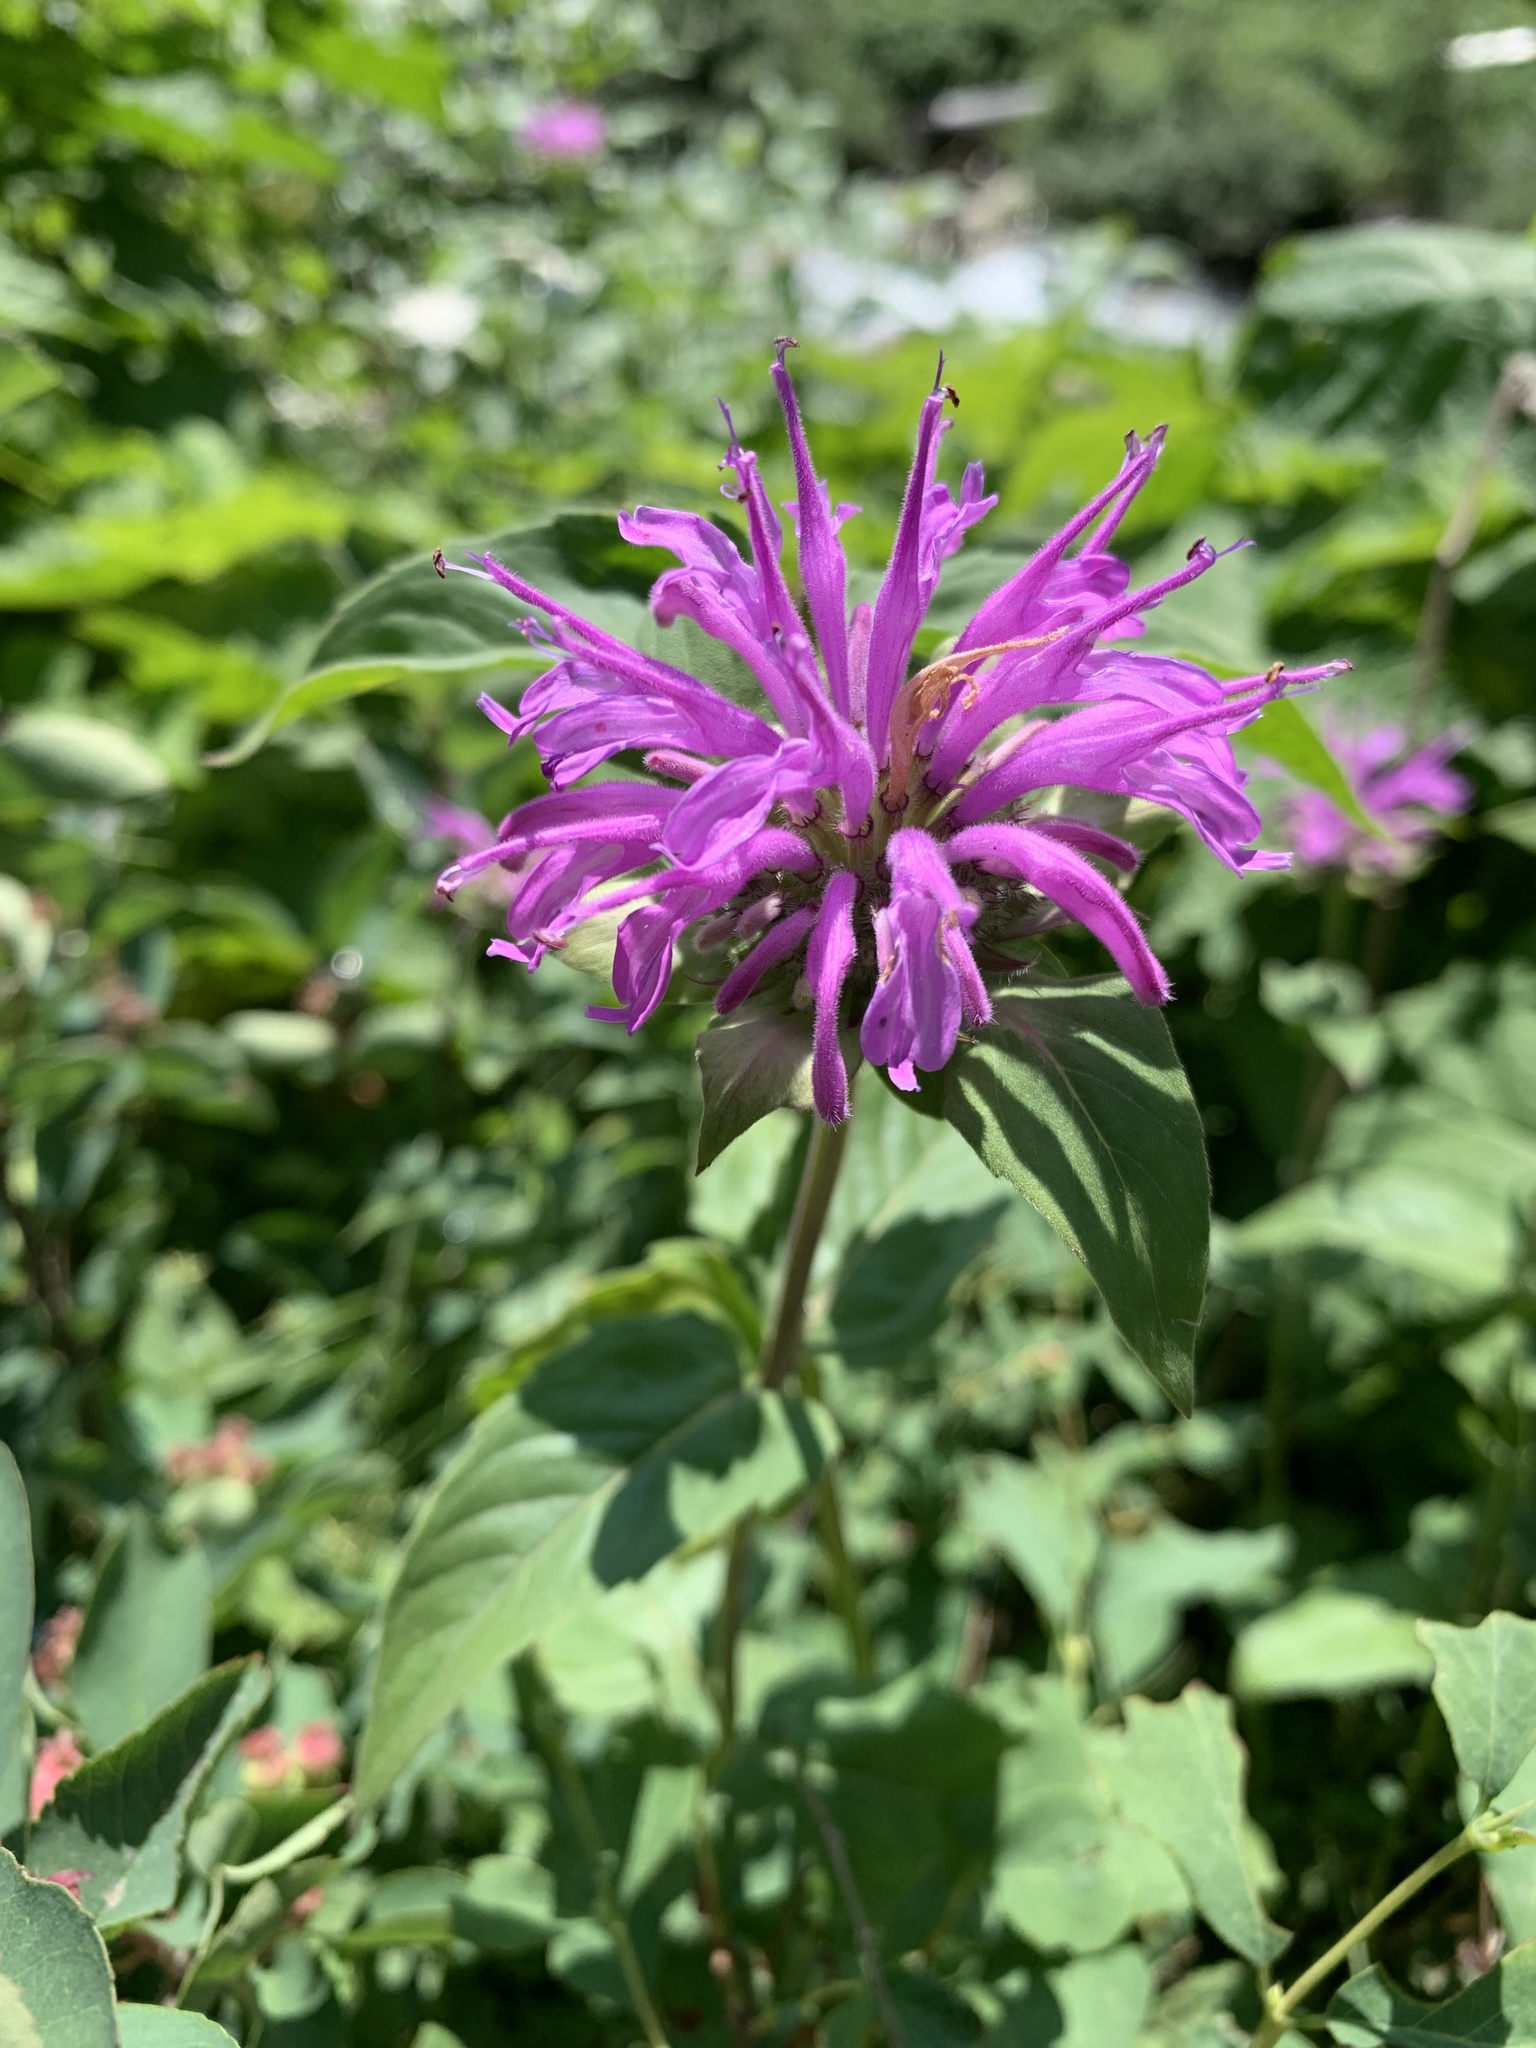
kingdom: Plantae
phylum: Tracheophyta
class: Magnoliopsida
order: Lamiales
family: Lamiaceae
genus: Monarda
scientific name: Monarda fistulosa
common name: Purple beebalm
